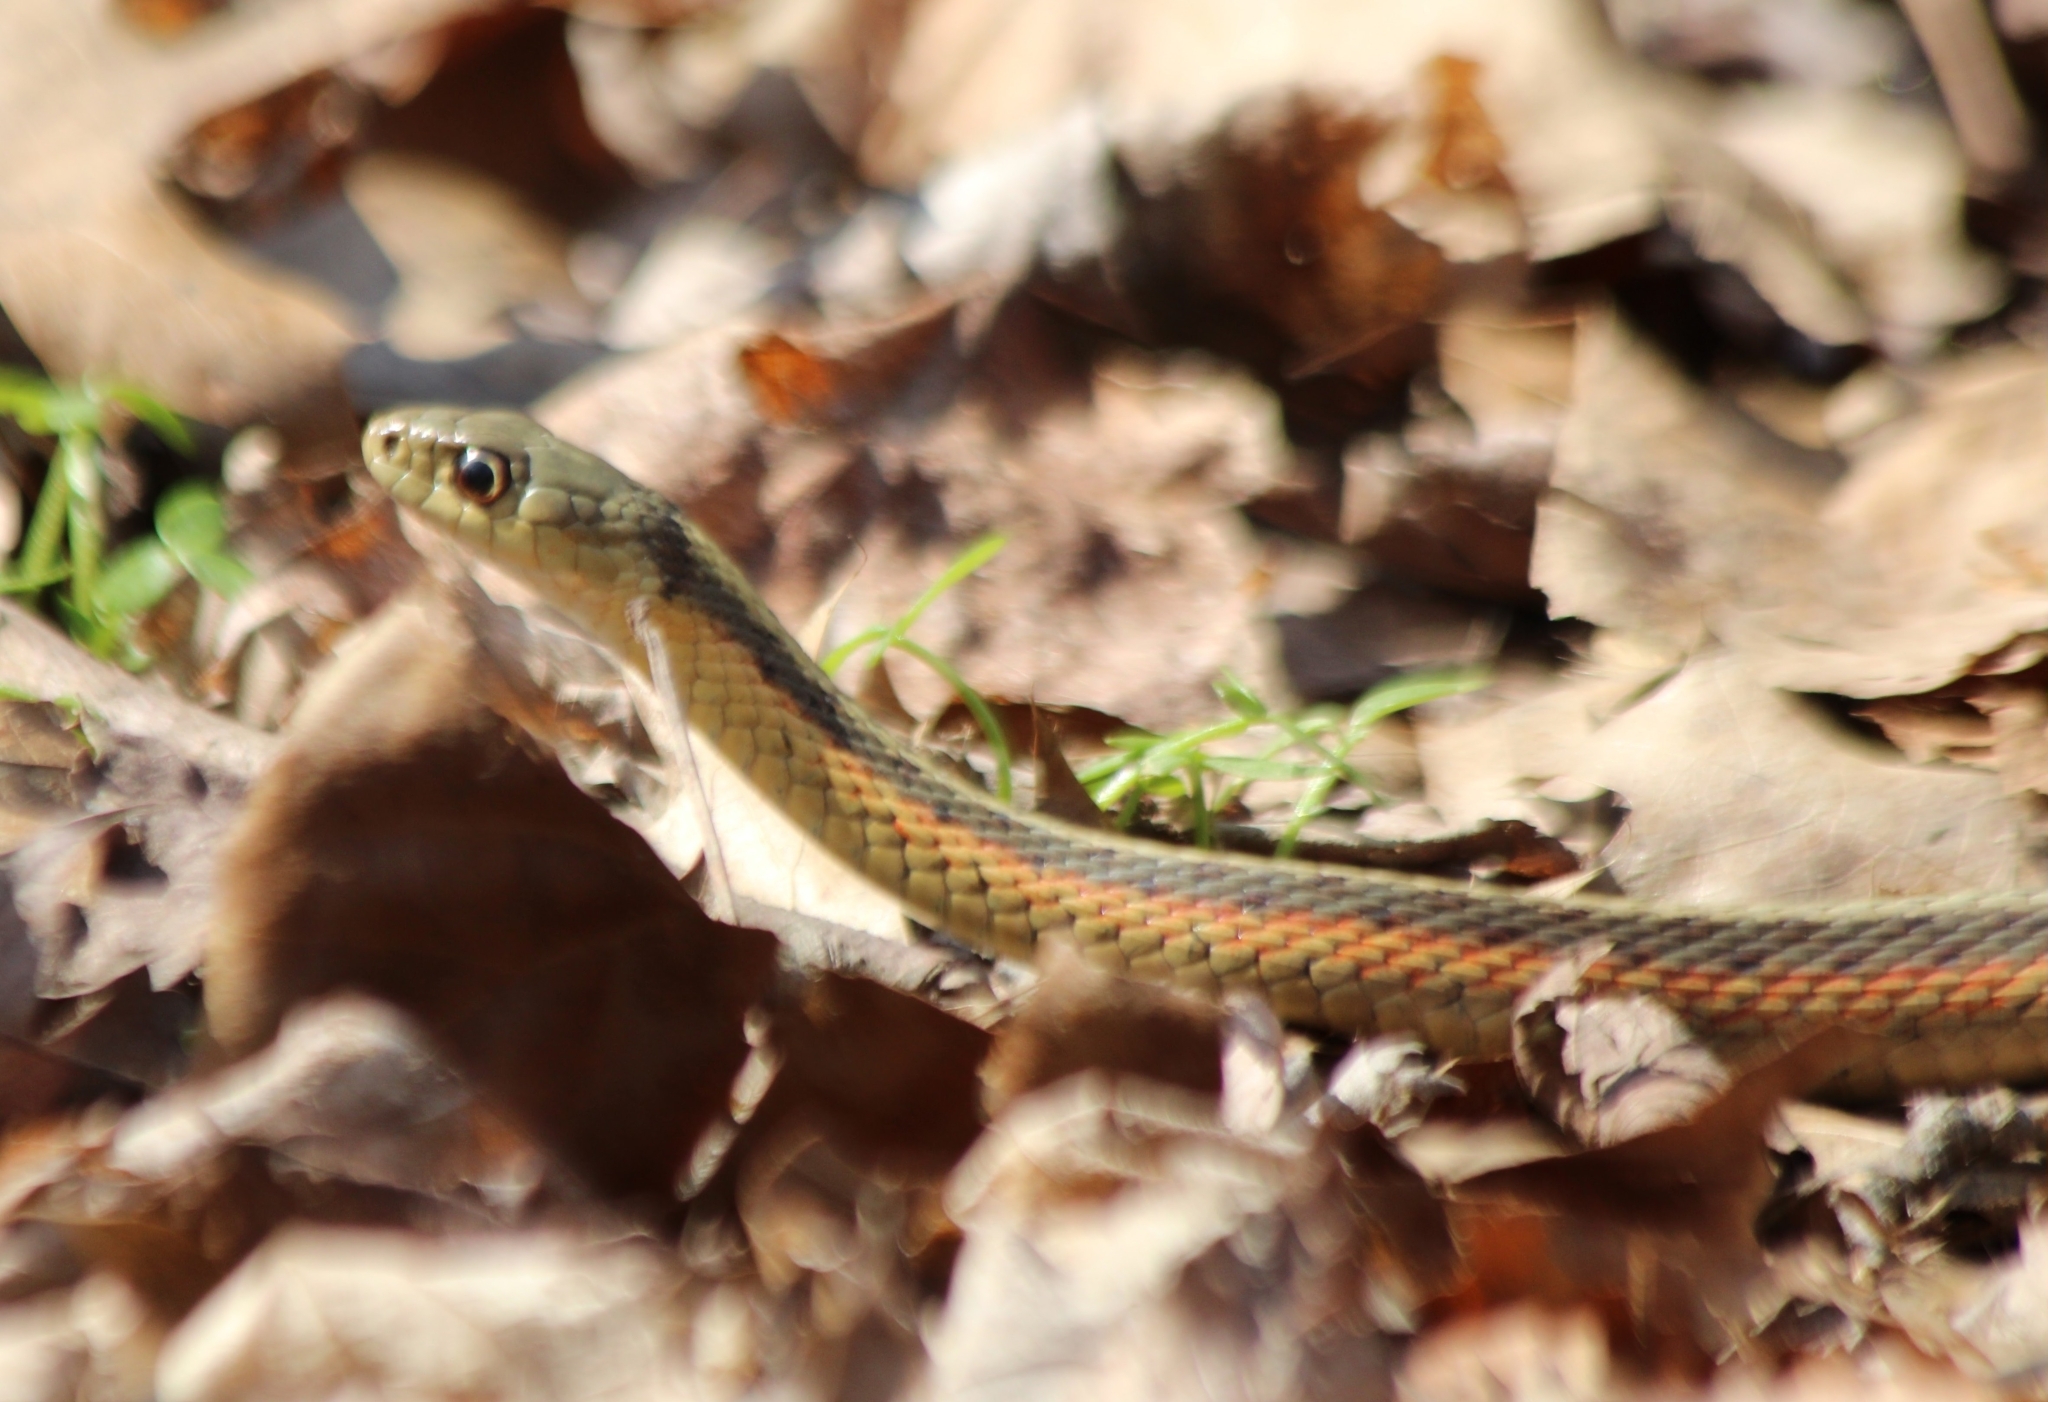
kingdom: Animalia
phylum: Chordata
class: Squamata
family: Colubridae
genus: Thamnophis
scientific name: Thamnophis sirtalis
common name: Common garter snake
